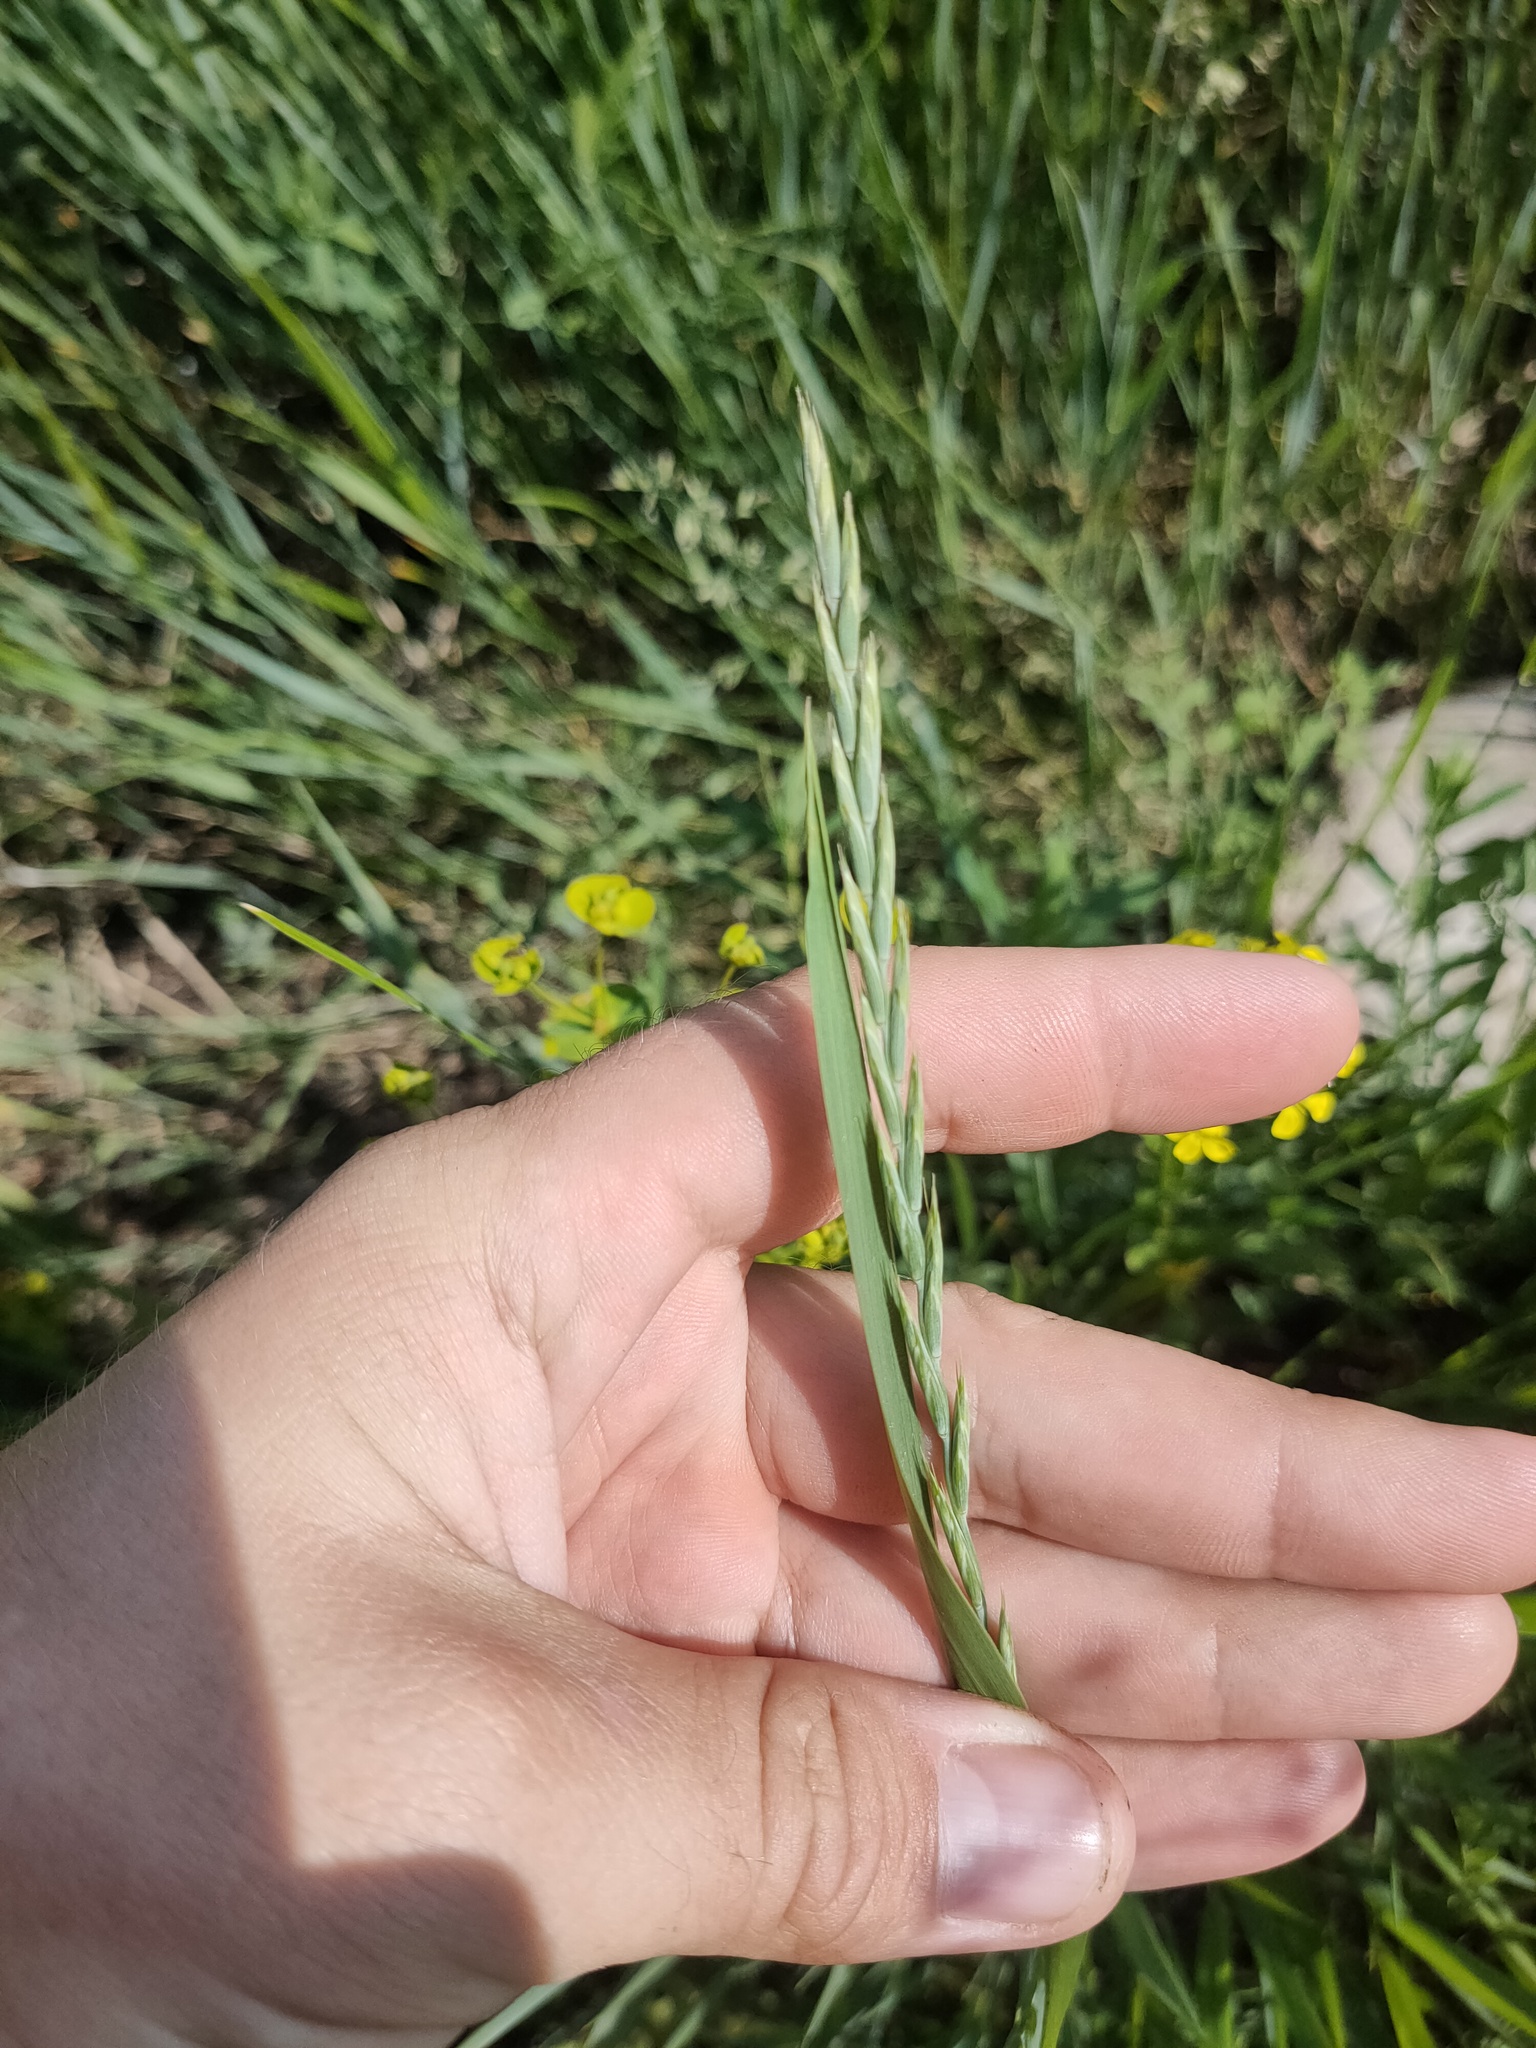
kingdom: Plantae
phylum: Tracheophyta
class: Liliopsida
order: Poales
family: Poaceae
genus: Elymus
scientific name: Elymus repens
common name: Quackgrass
